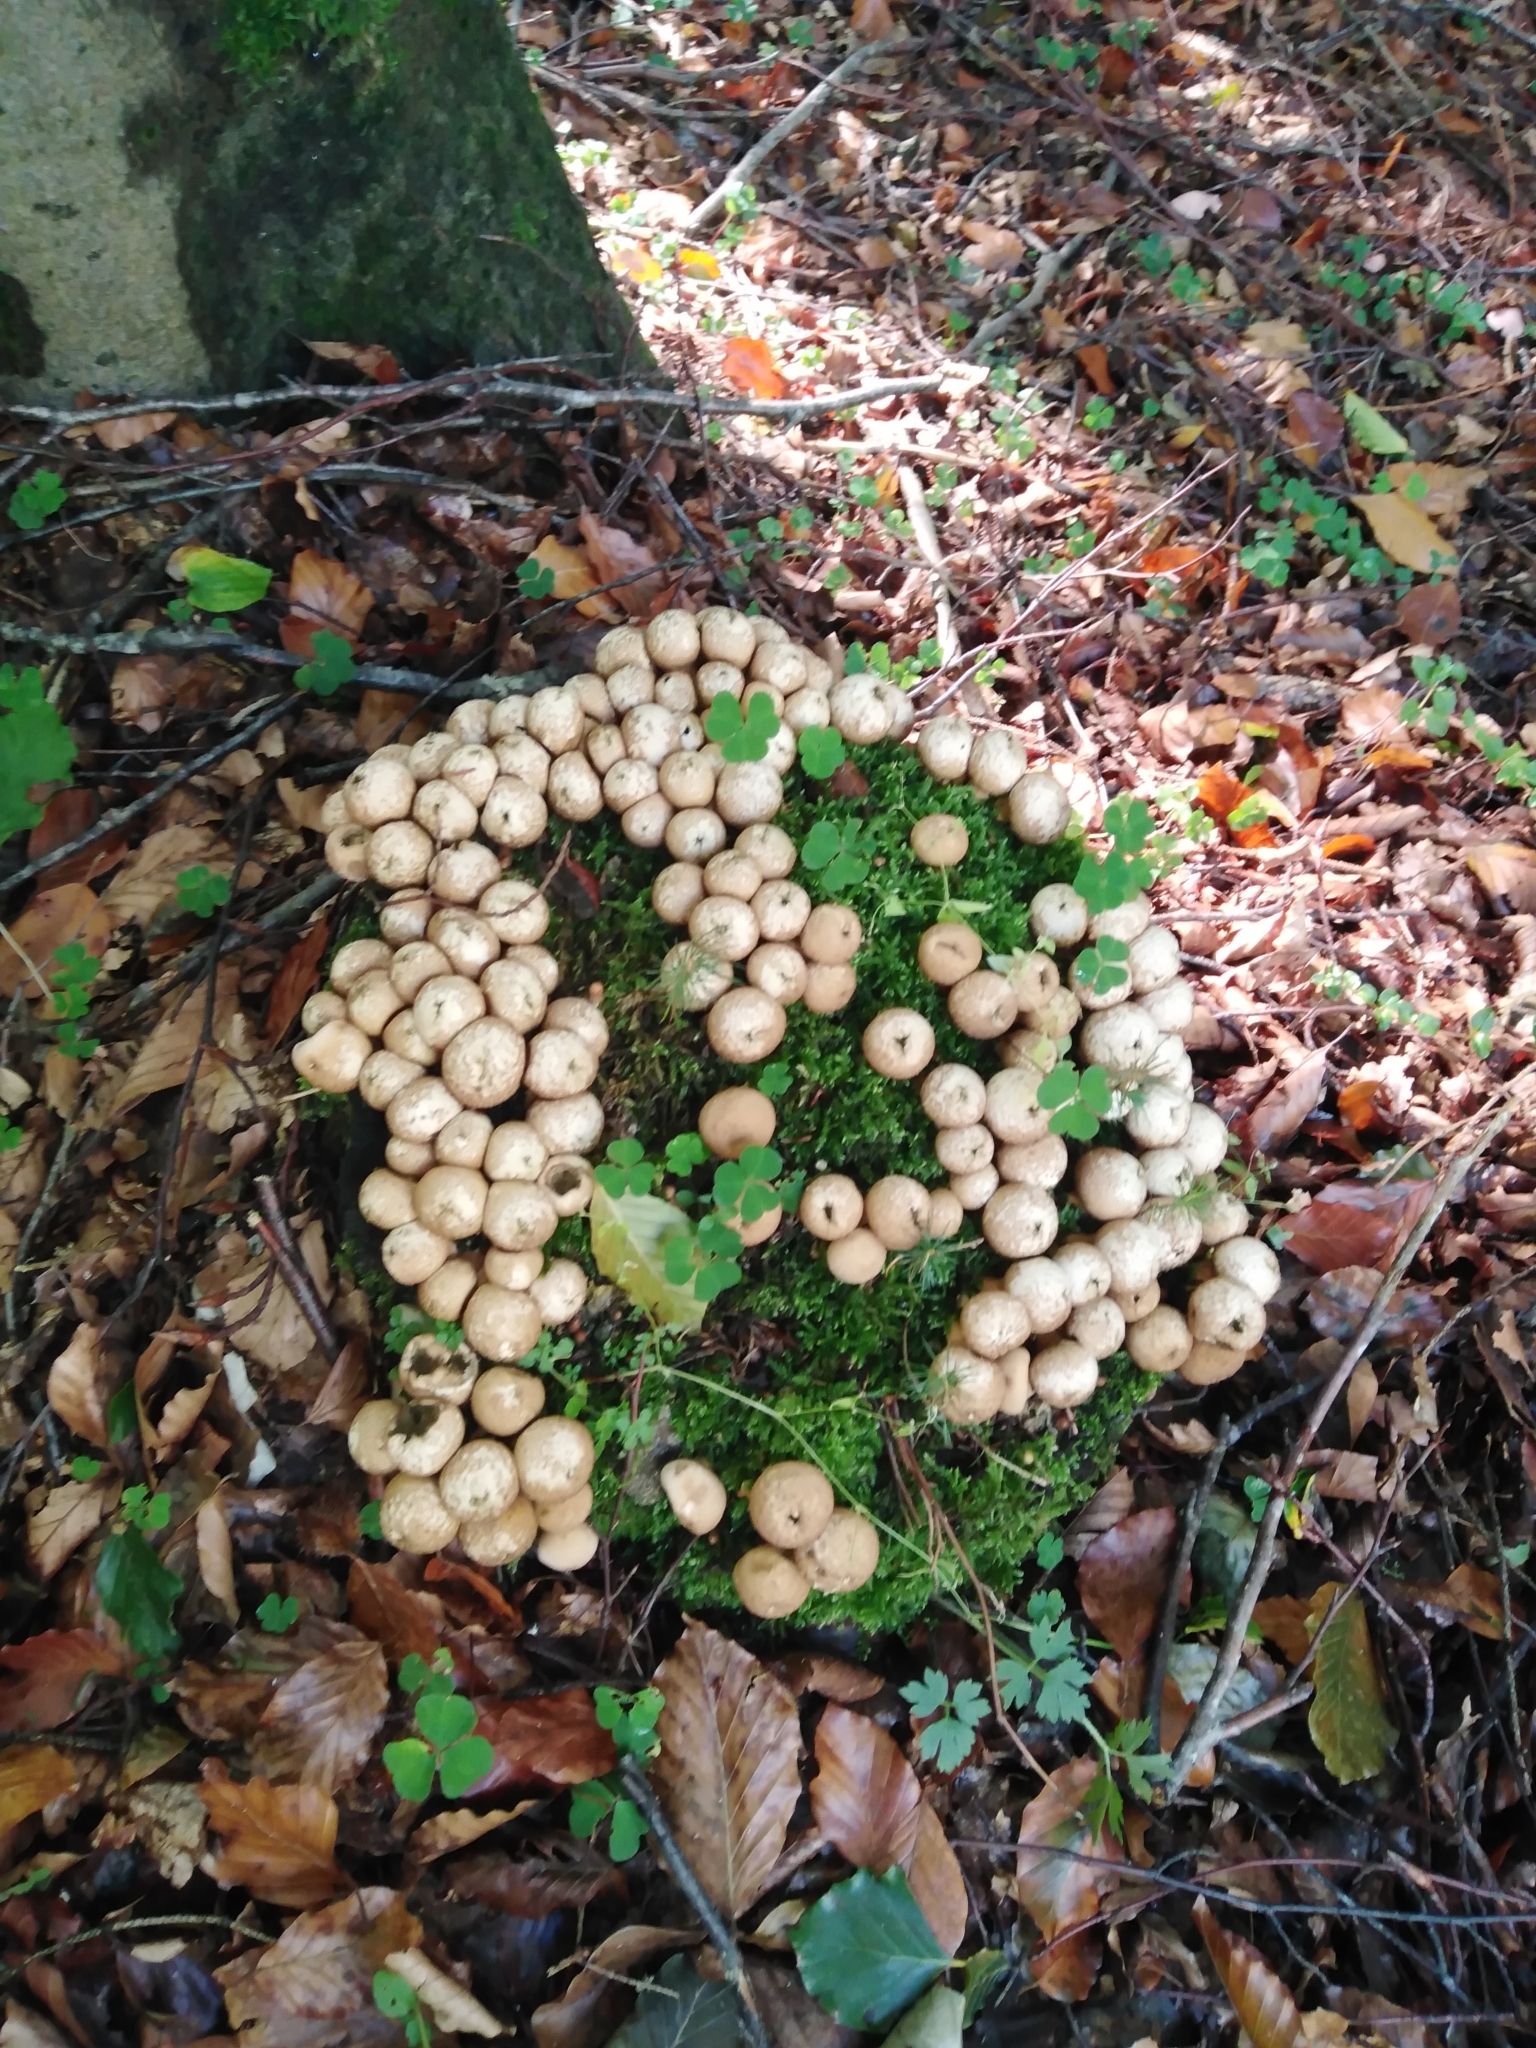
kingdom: Fungi
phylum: Basidiomycota
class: Agaricomycetes
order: Agaricales
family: Lycoperdaceae
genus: Apioperdon
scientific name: Apioperdon pyriforme
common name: Pear-shaped puffball
